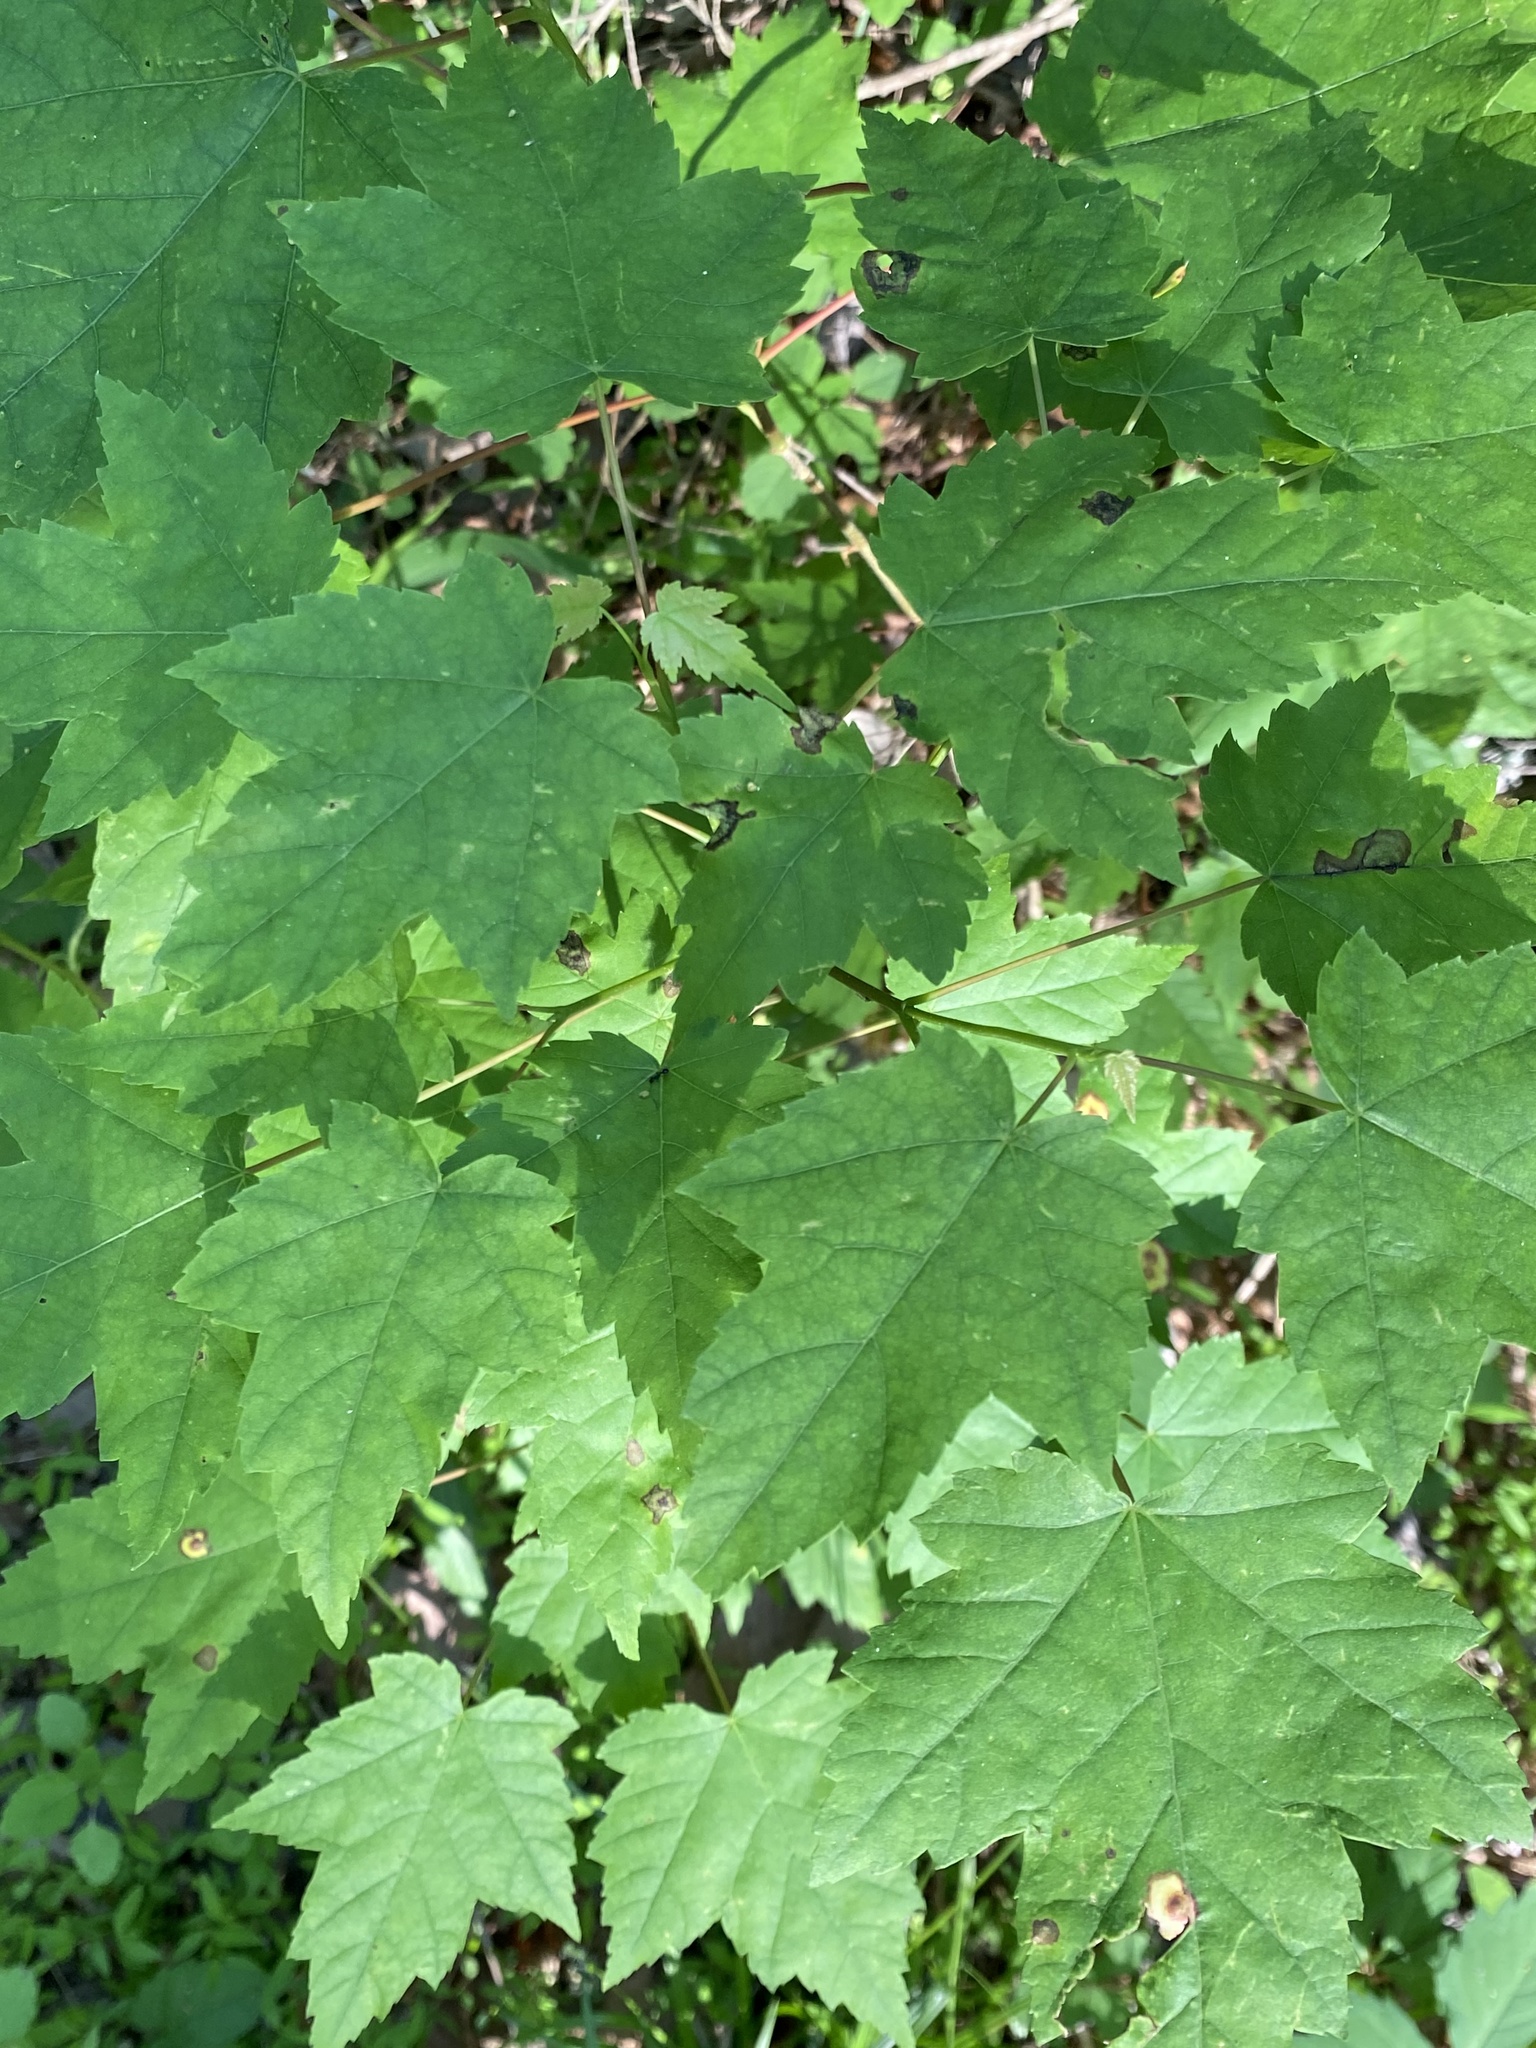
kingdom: Plantae
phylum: Tracheophyta
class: Magnoliopsida
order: Sapindales
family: Sapindaceae
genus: Acer
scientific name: Acer rubrum
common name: Red maple
